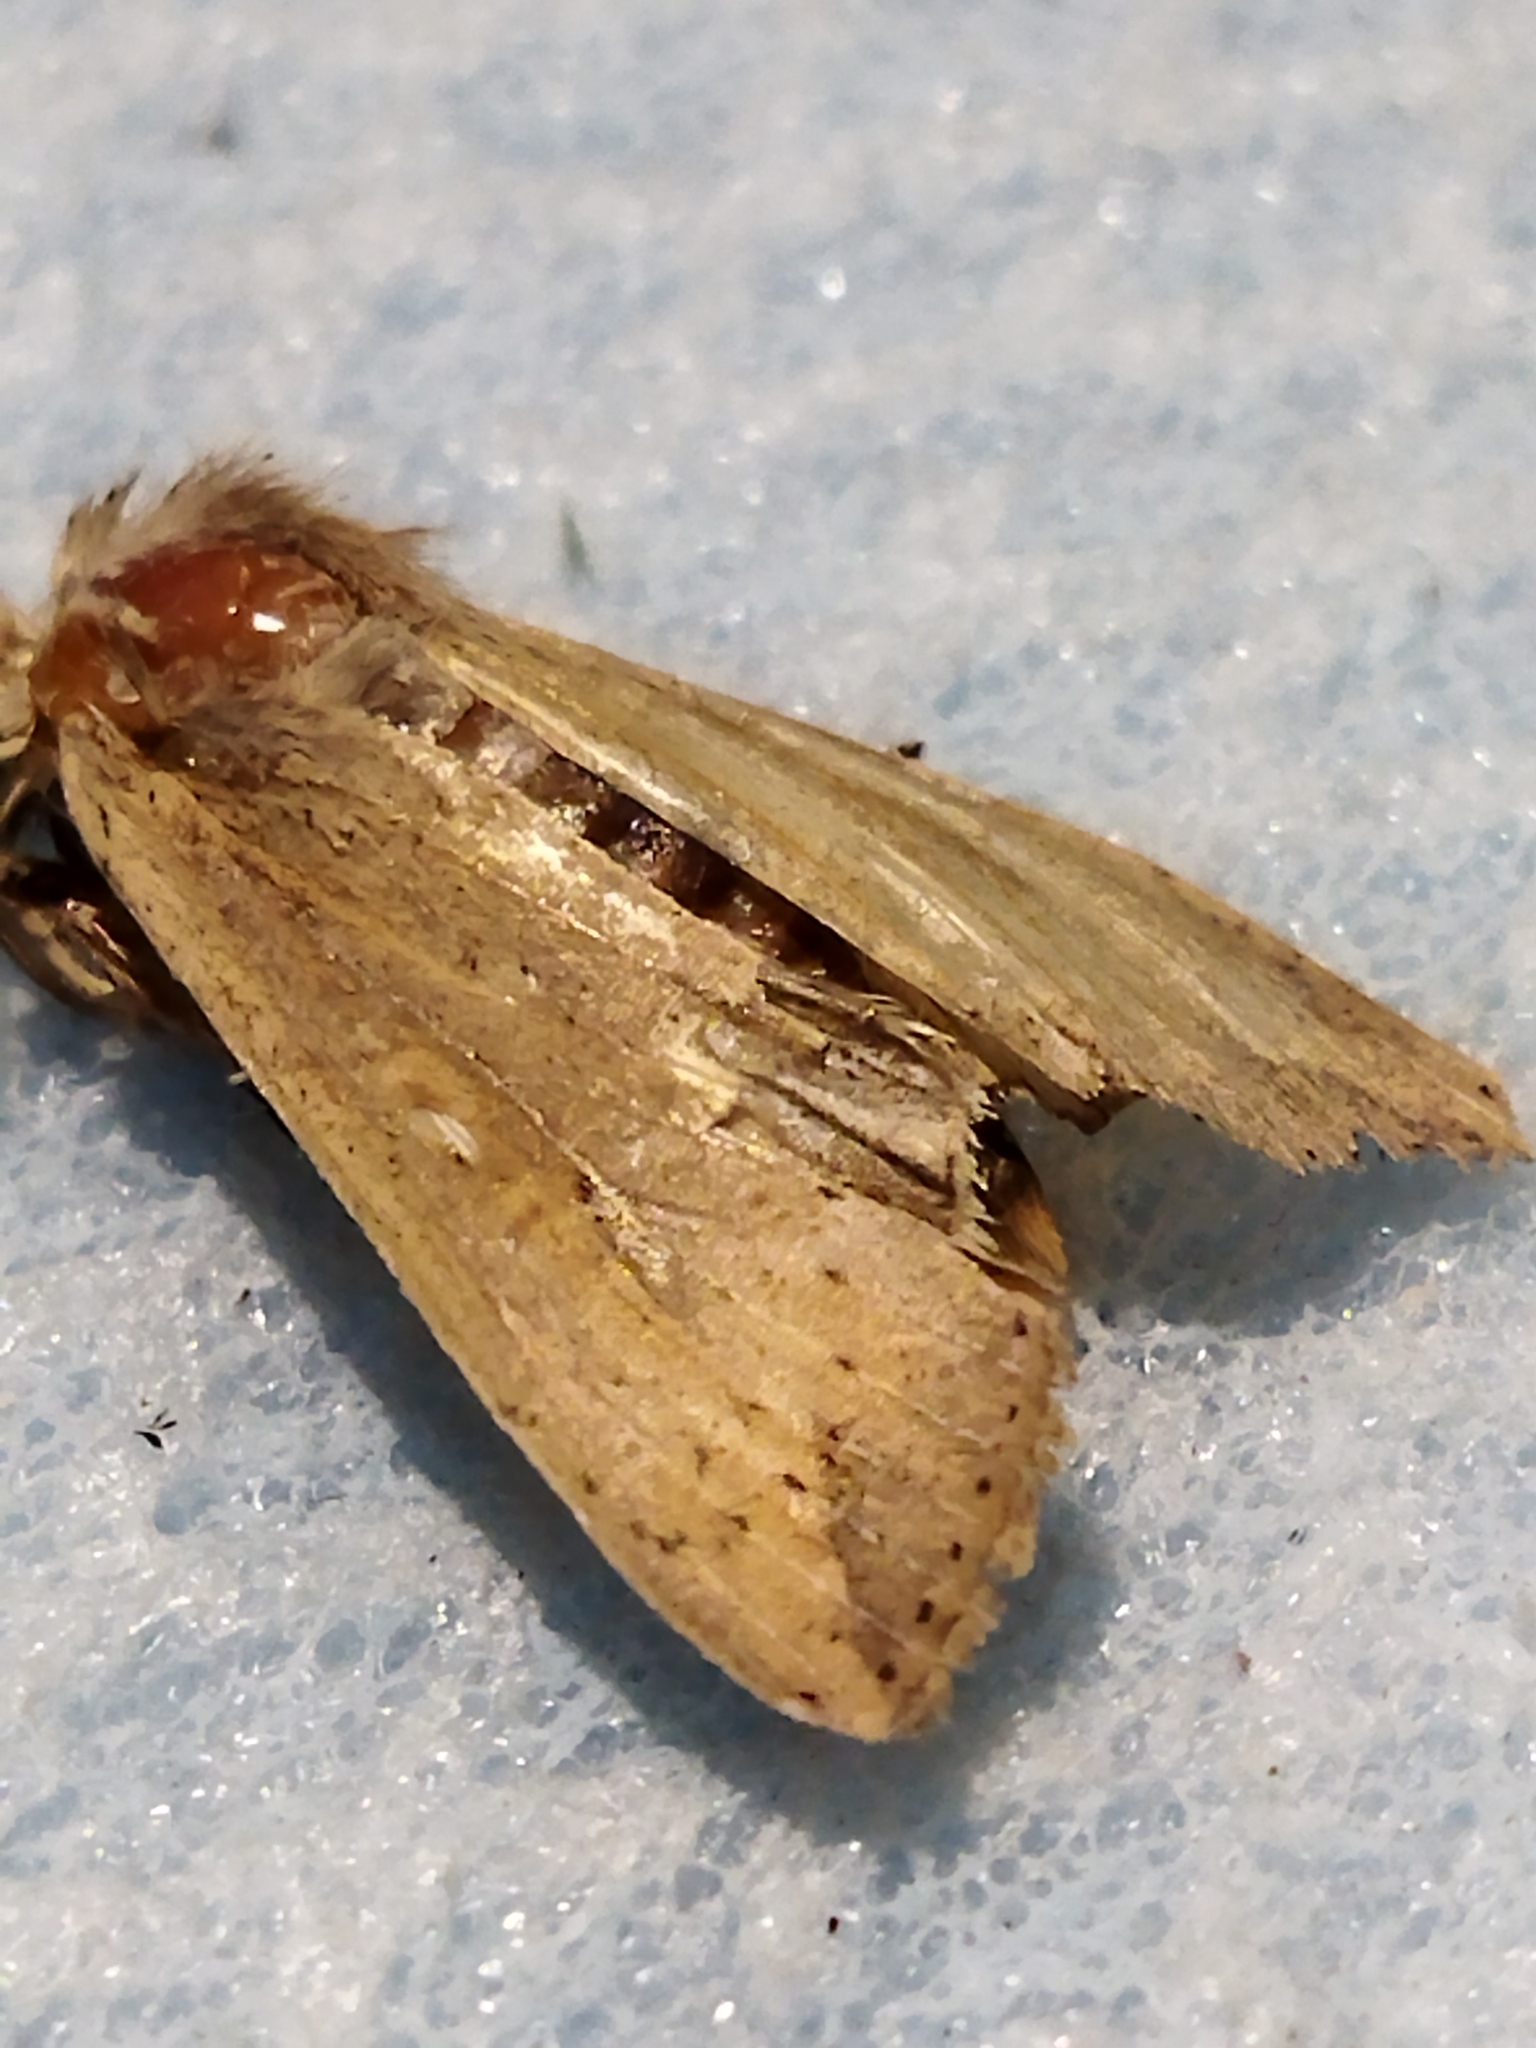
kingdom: Animalia
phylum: Arthropoda
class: Insecta
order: Lepidoptera
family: Noctuidae
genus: Mythimna
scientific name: Mythimna unipuncta
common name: White-speck
